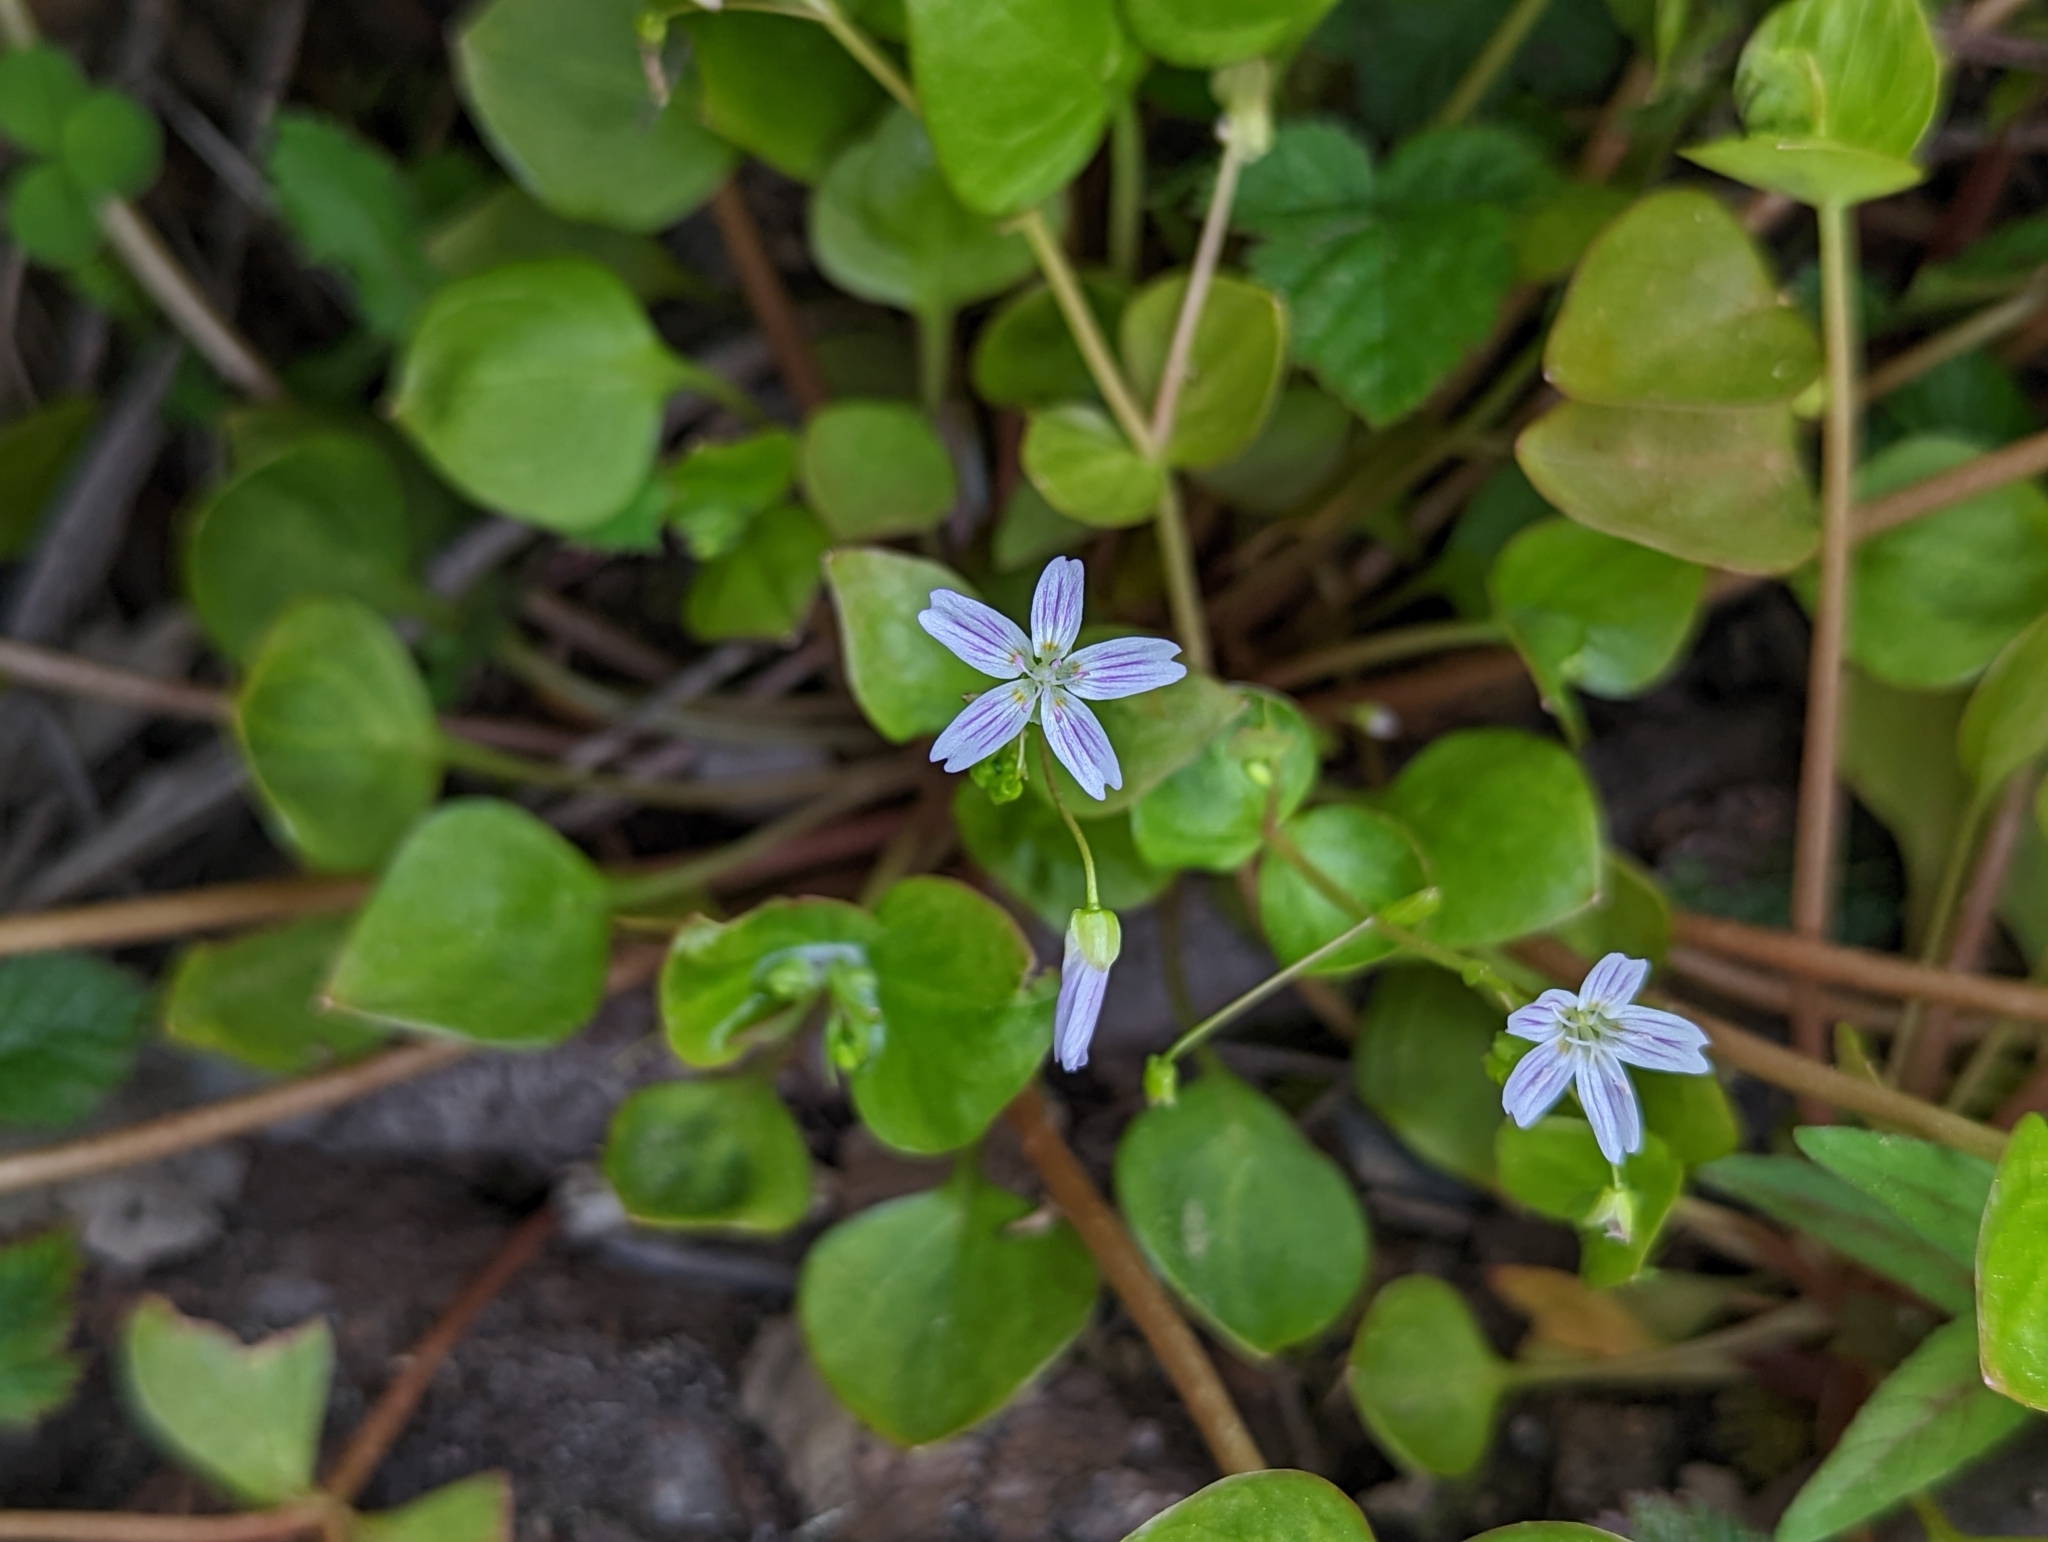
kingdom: Plantae
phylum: Tracheophyta
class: Magnoliopsida
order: Caryophyllales
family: Montiaceae
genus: Claytonia
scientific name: Claytonia sibirica
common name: Pink purslane
